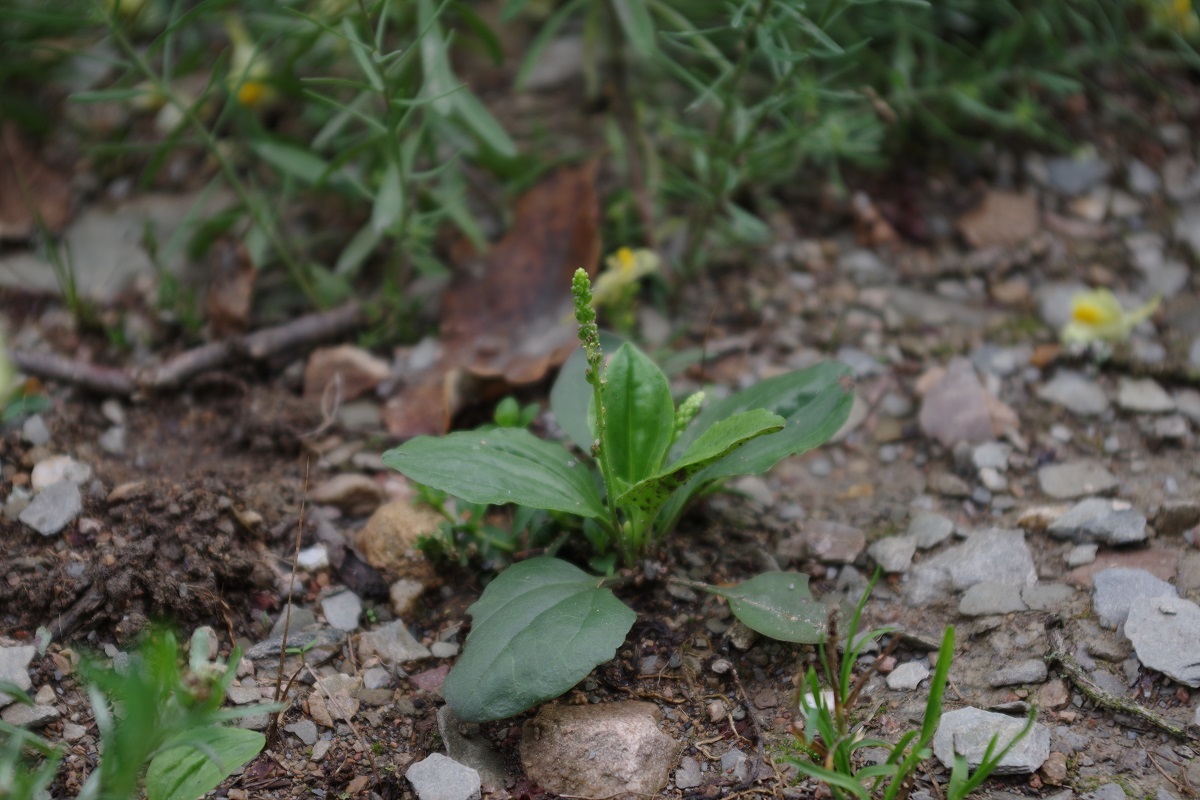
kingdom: Plantae
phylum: Tracheophyta
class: Magnoliopsida
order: Lamiales
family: Plantaginaceae
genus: Plantago
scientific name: Plantago major
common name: Common plantain
